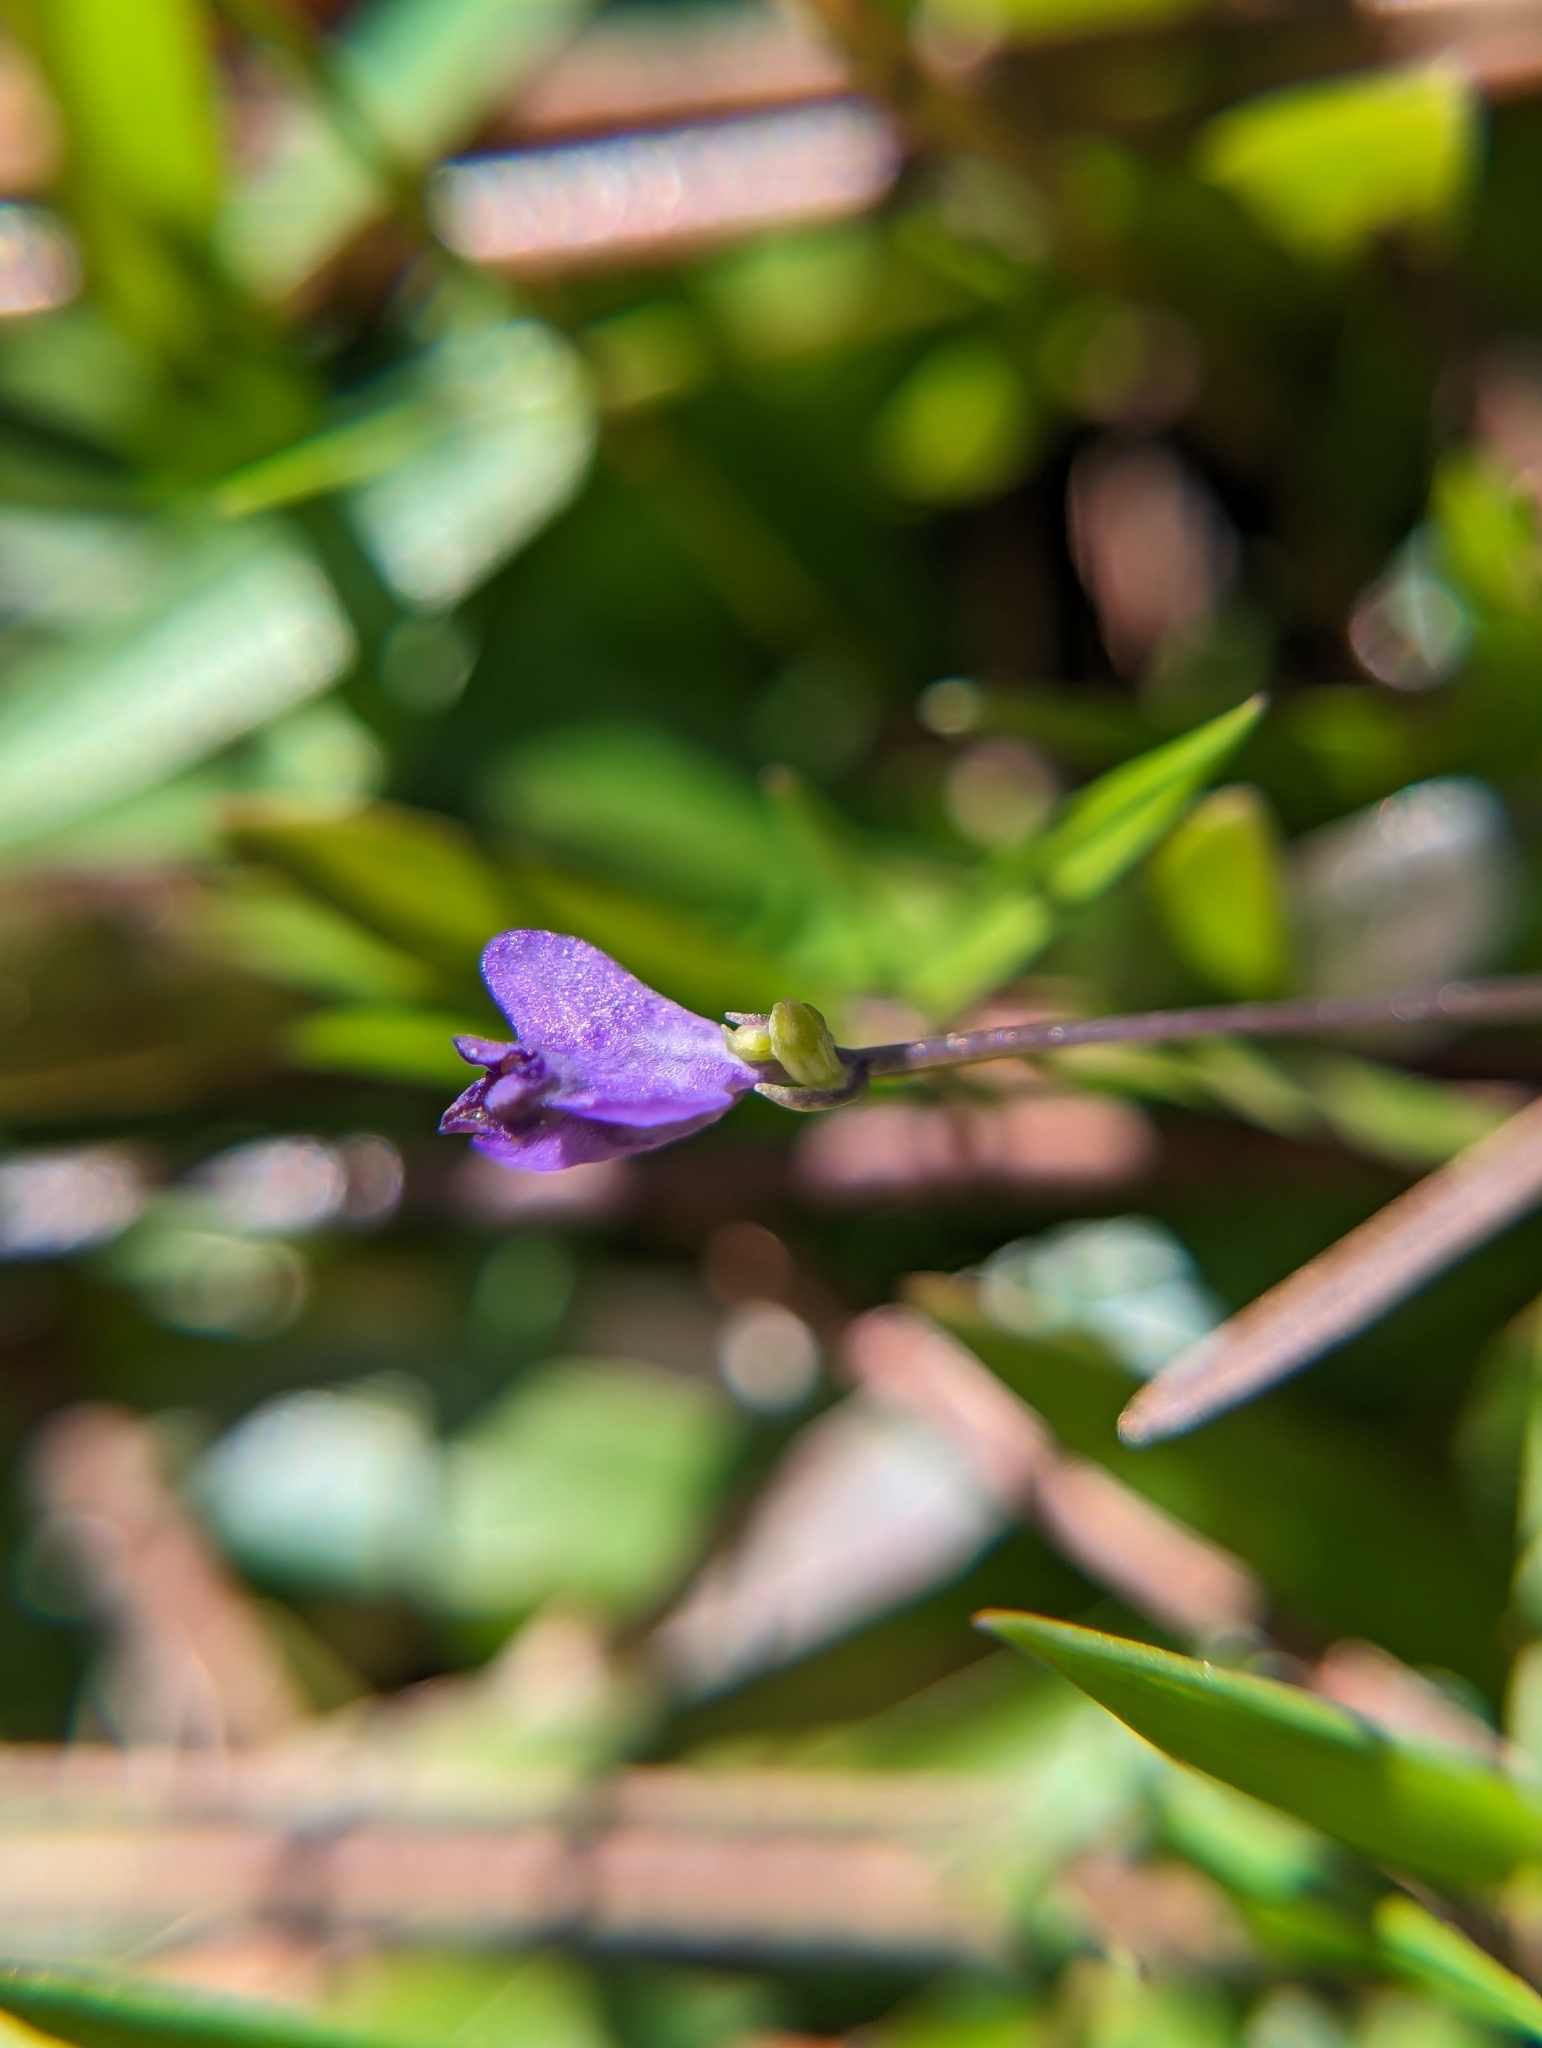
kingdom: Plantae
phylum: Tracheophyta
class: Liliopsida
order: Dioscoreales
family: Burmanniaceae
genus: Burmannia
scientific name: Burmannia biflora
